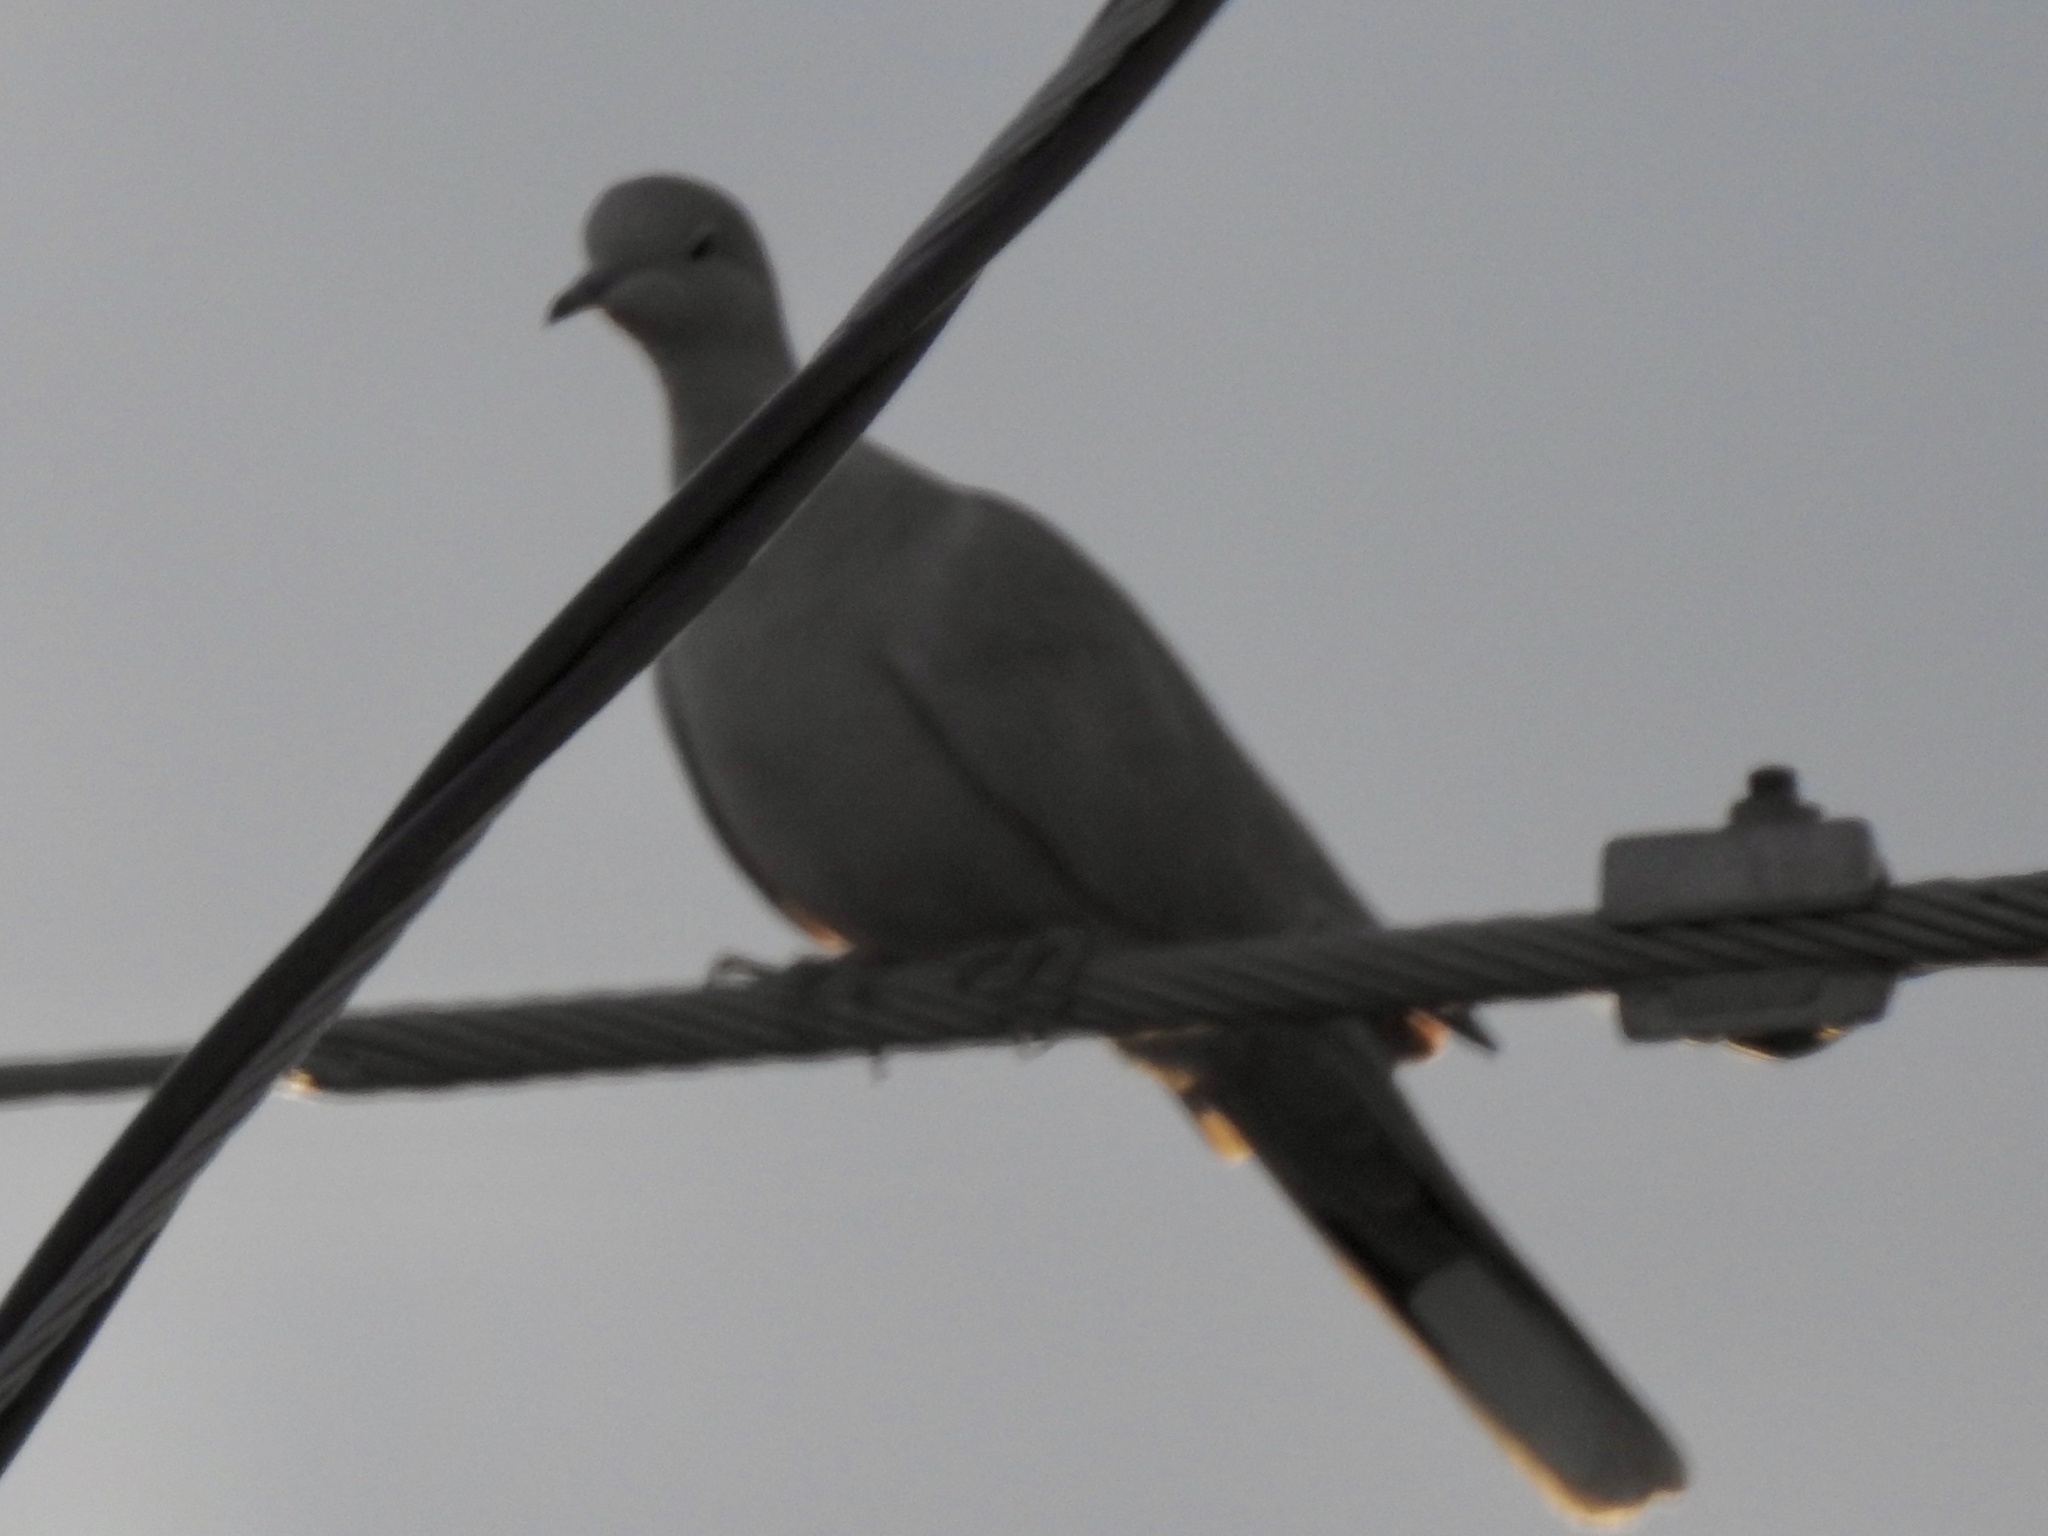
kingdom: Animalia
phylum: Chordata
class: Aves
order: Columbiformes
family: Columbidae
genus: Streptopelia
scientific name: Streptopelia decaocto
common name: Eurasian collared dove
